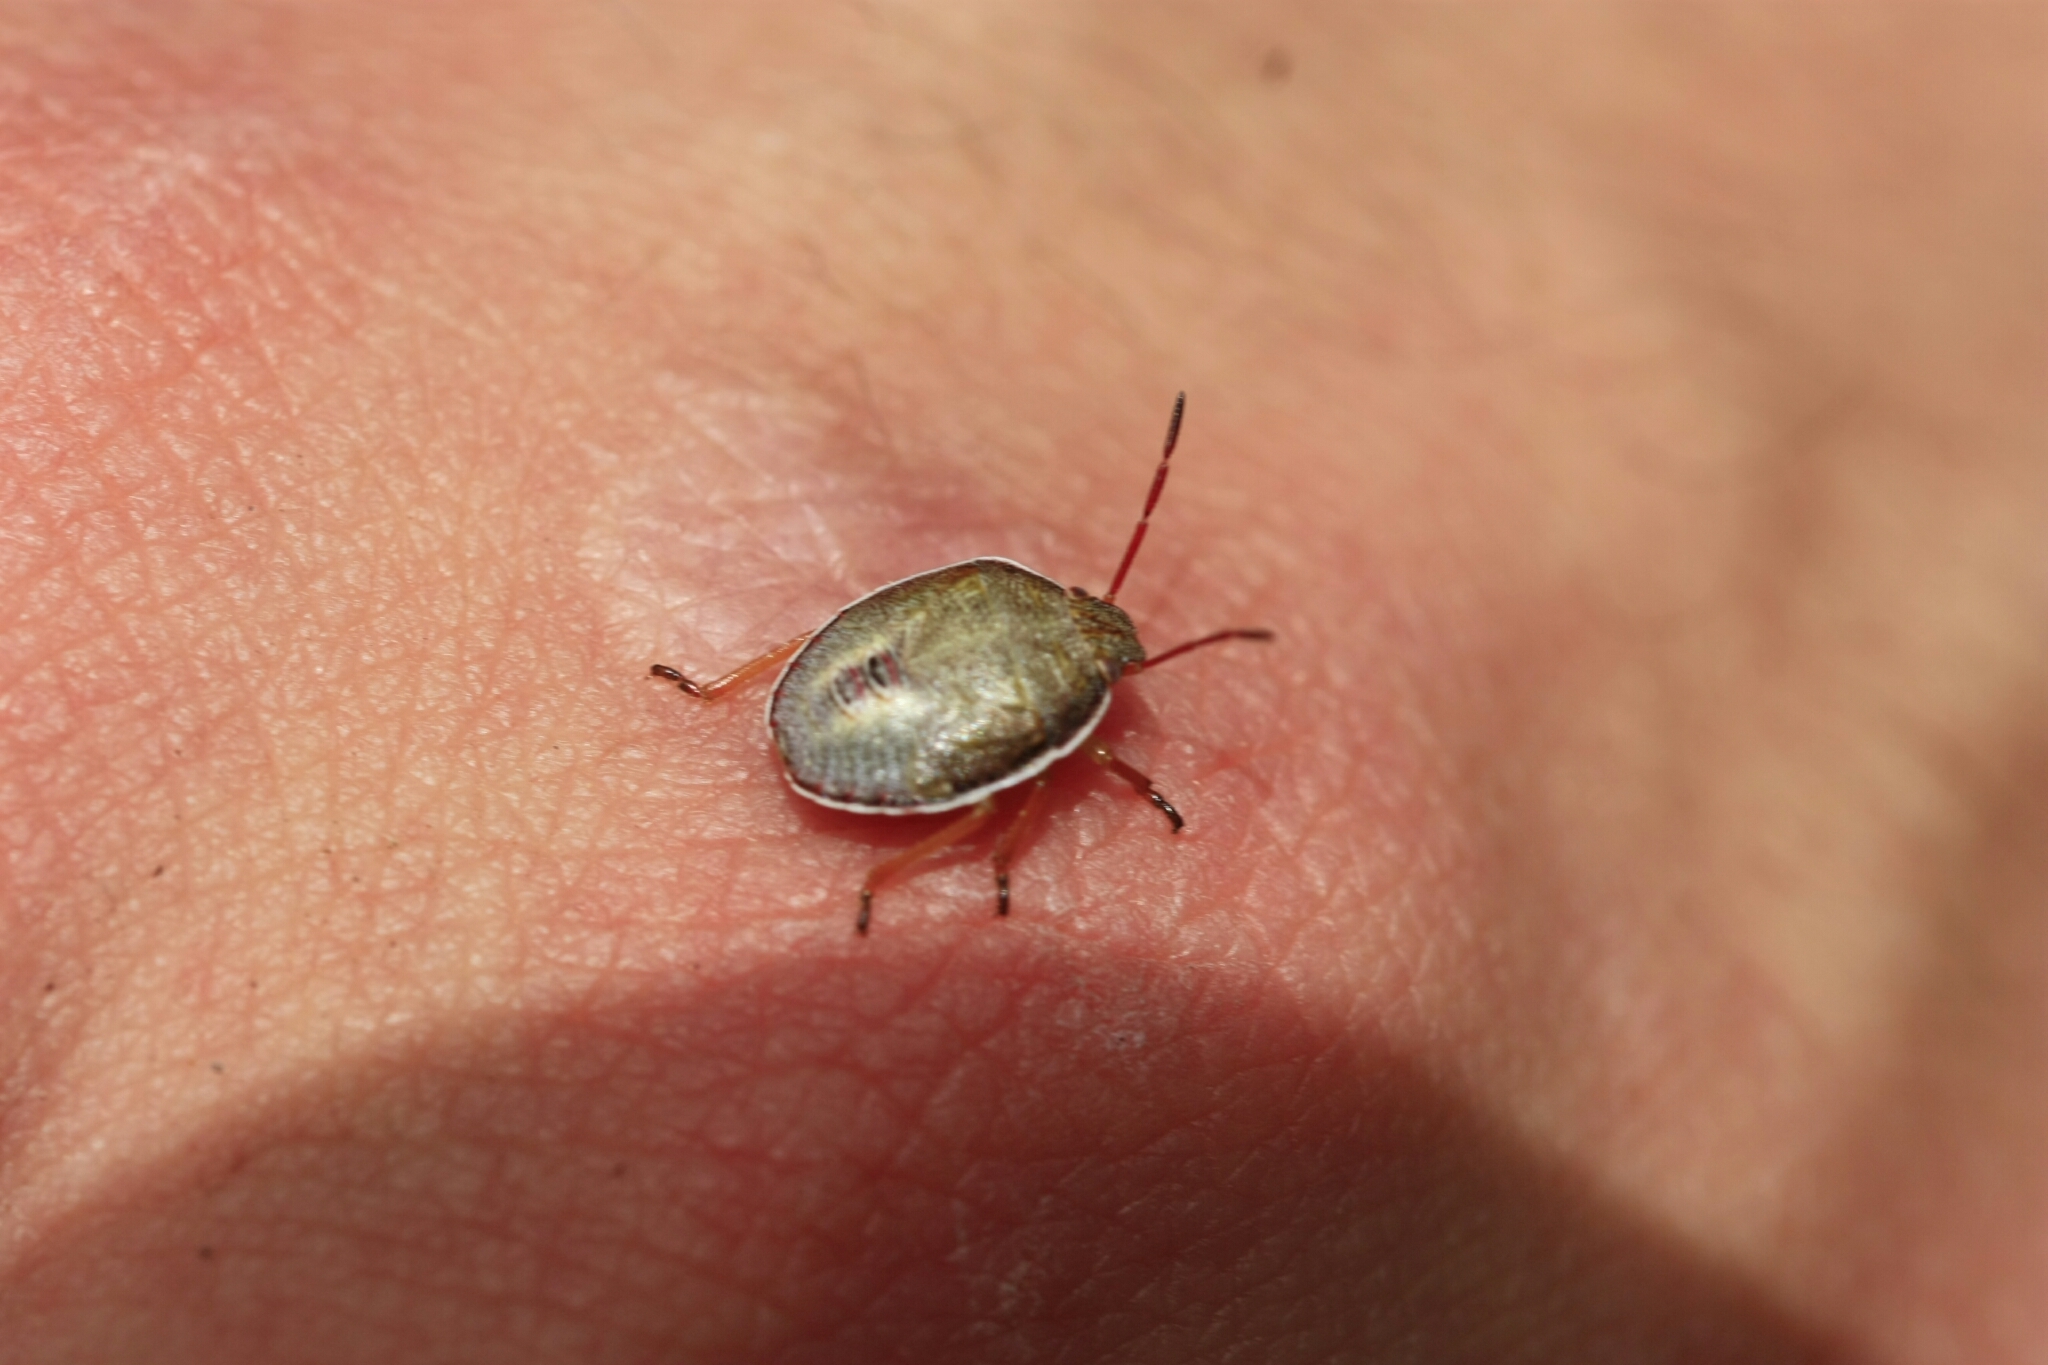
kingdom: Animalia
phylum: Arthropoda
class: Insecta
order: Hemiptera
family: Pentatomidae
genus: Piezodorus
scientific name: Piezodorus lituratus
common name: Stink bug
